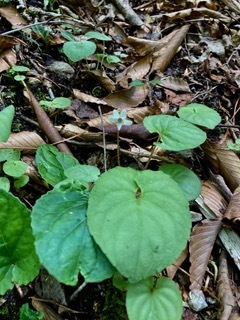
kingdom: Plantae
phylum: Tracheophyta
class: Magnoliopsida
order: Malpighiales
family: Violaceae
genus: Viola
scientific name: Viola blanda
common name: Sweet white violet
